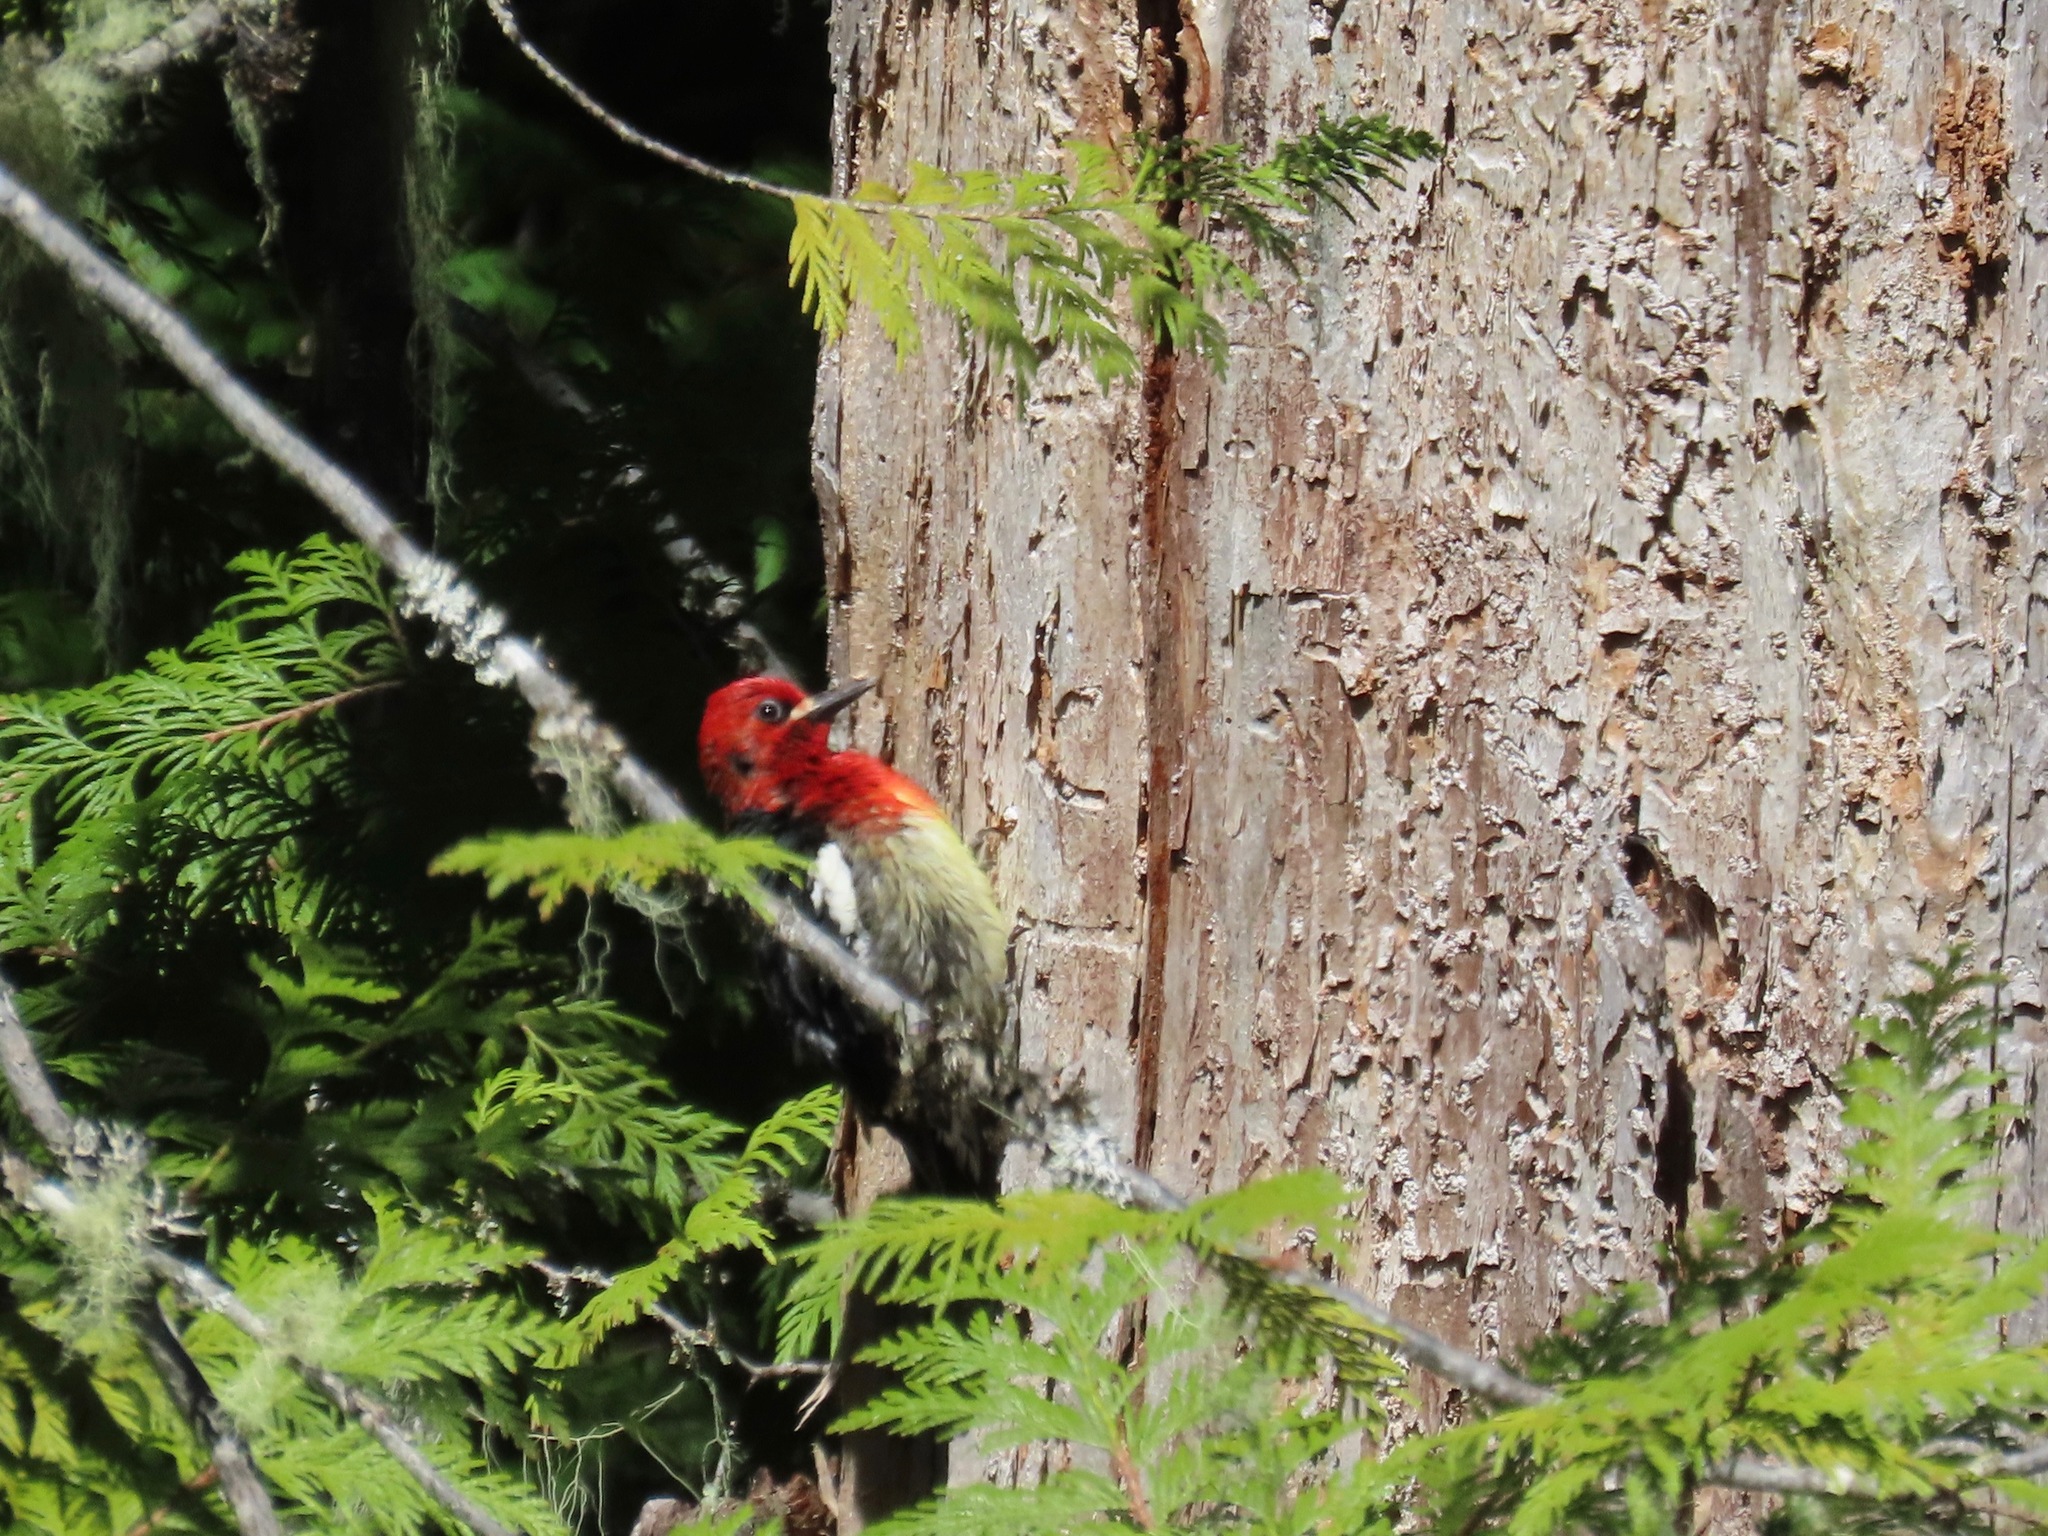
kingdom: Animalia
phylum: Chordata
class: Aves
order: Piciformes
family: Picidae
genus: Sphyrapicus
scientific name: Sphyrapicus ruber
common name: Red-breasted sapsucker
